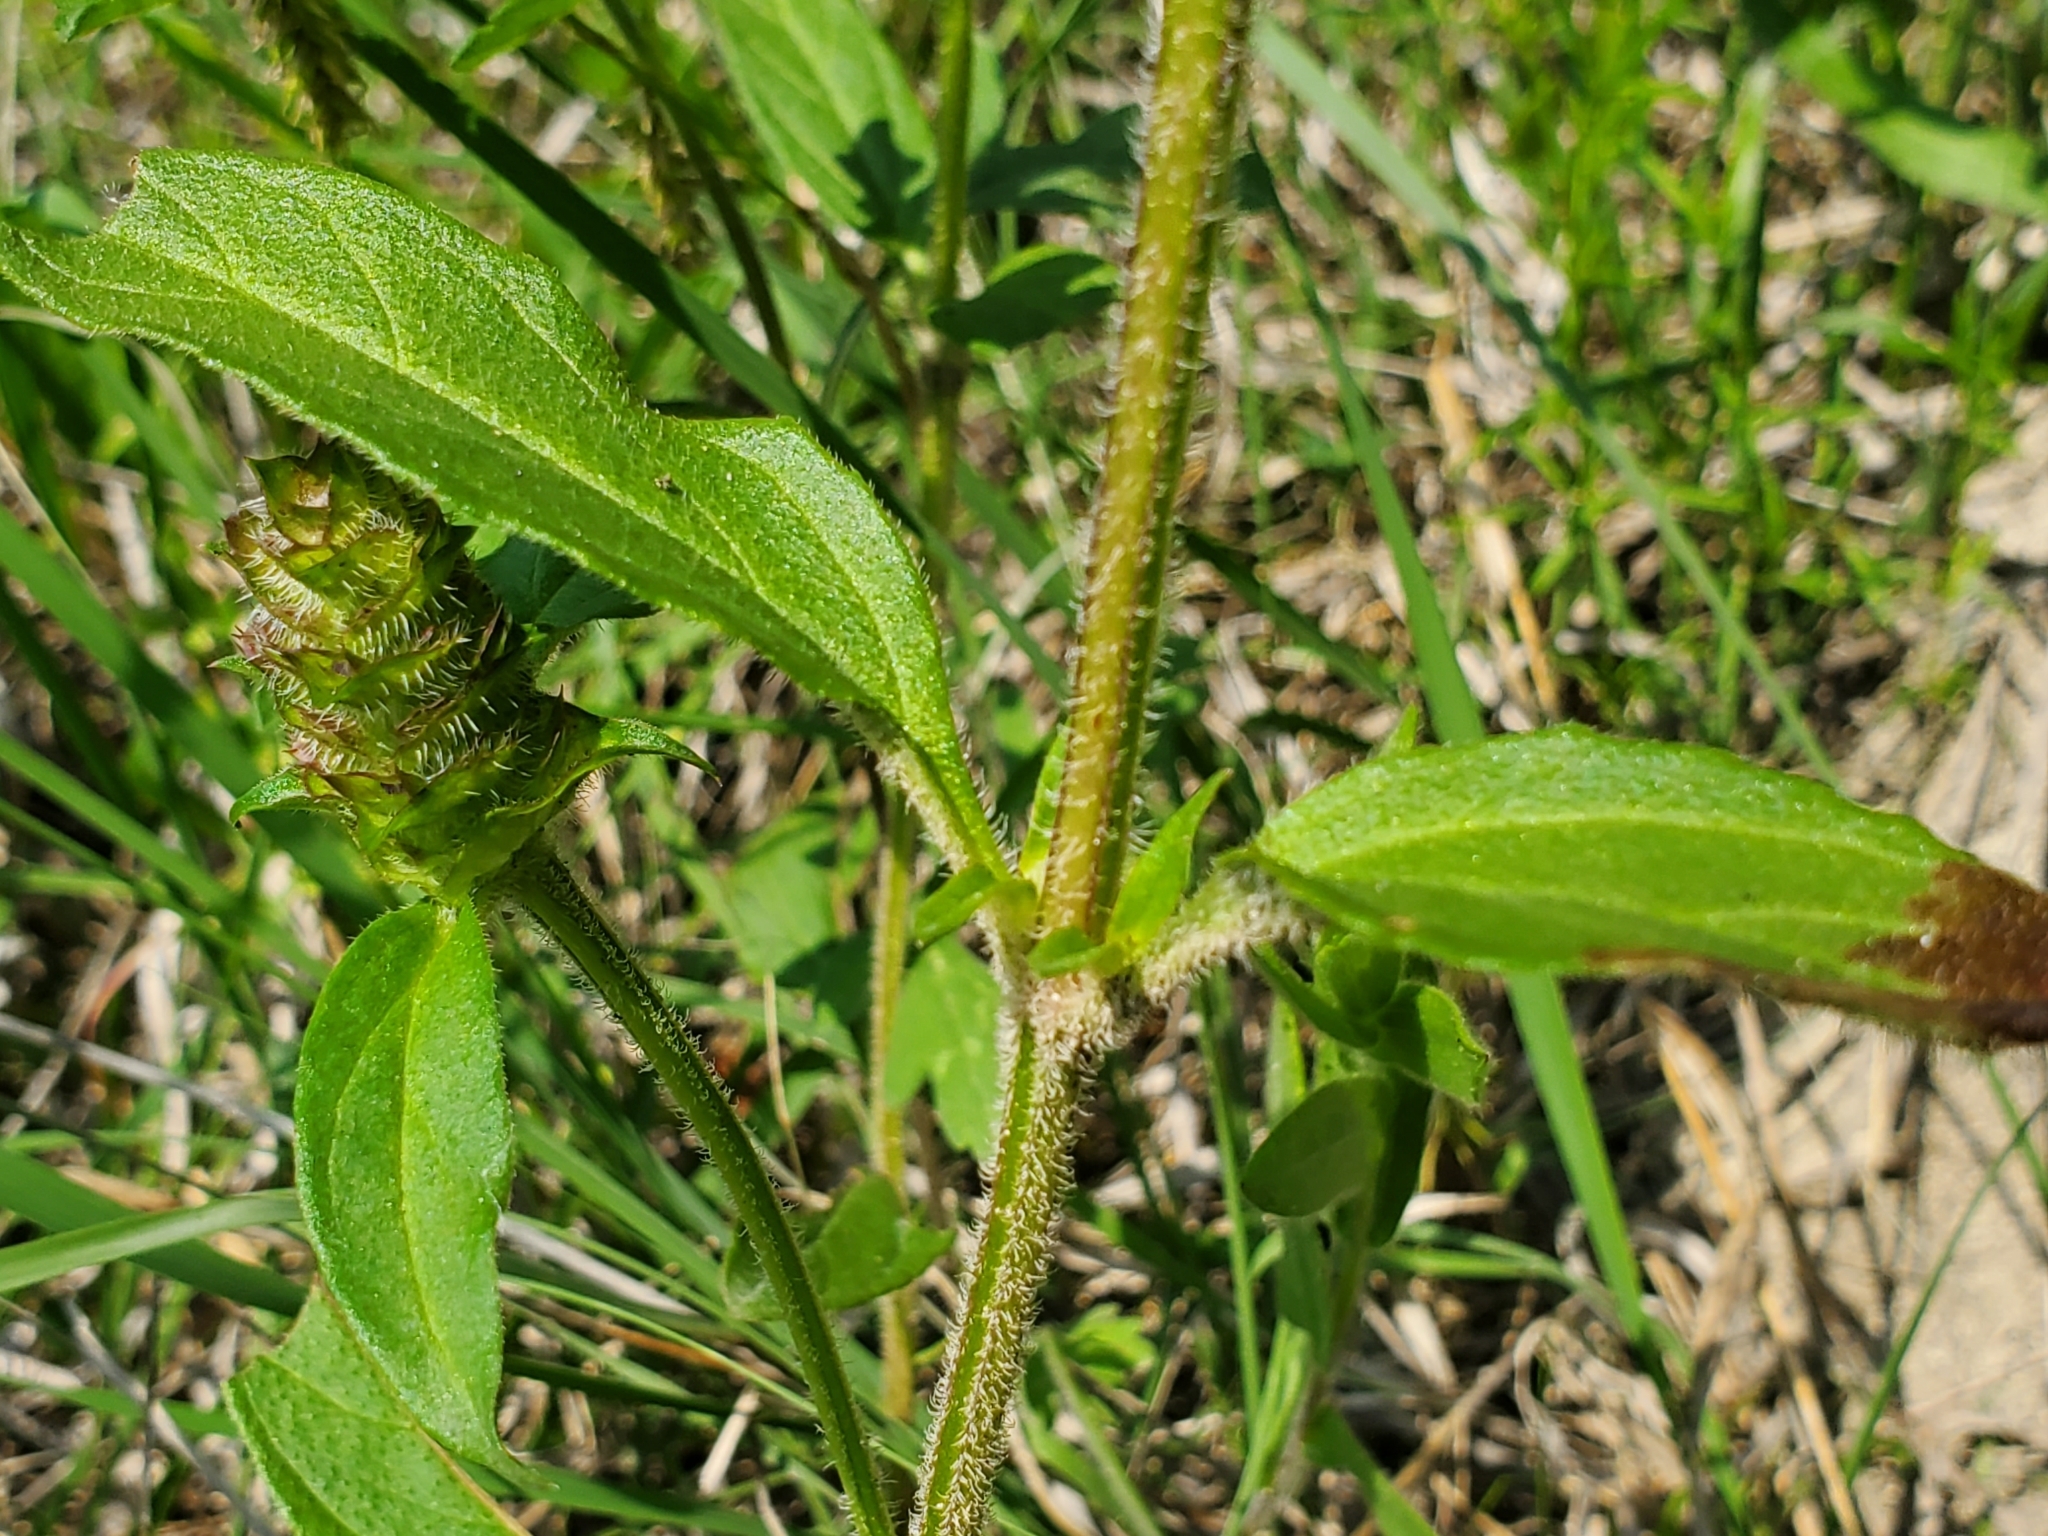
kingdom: Plantae
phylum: Tracheophyta
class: Magnoliopsida
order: Lamiales
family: Lamiaceae
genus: Prunella
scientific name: Prunella vulgaris
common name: Heal-all
